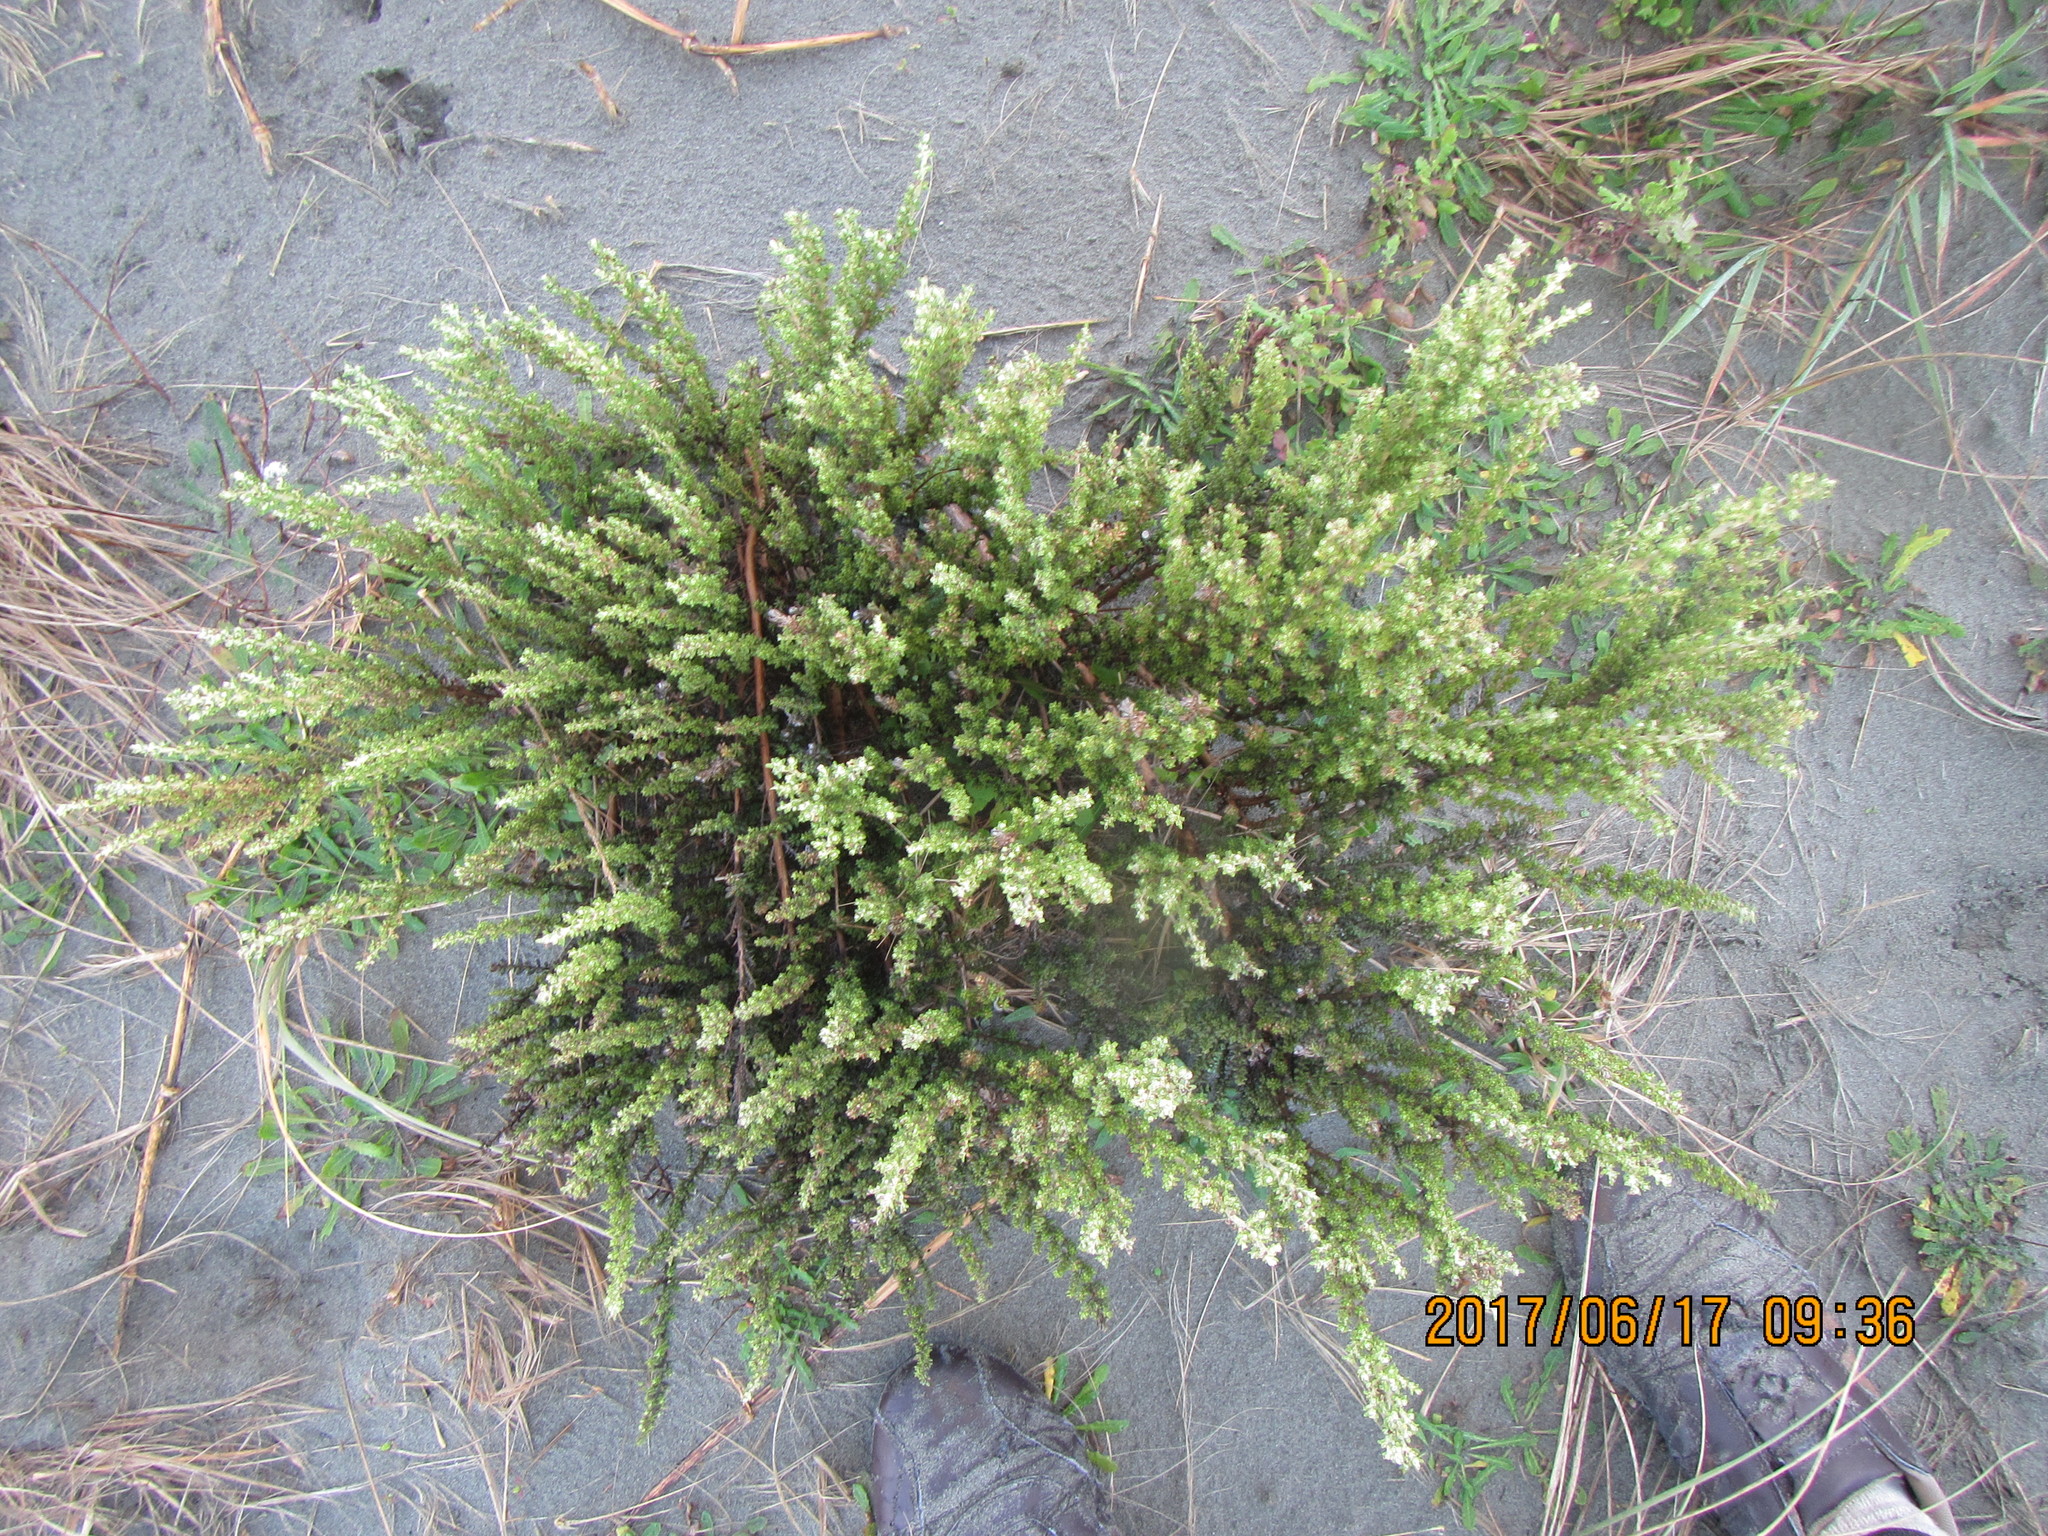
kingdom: Plantae
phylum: Tracheophyta
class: Magnoliopsida
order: Asterales
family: Asteraceae
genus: Ozothamnus
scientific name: Ozothamnus leptophyllus
